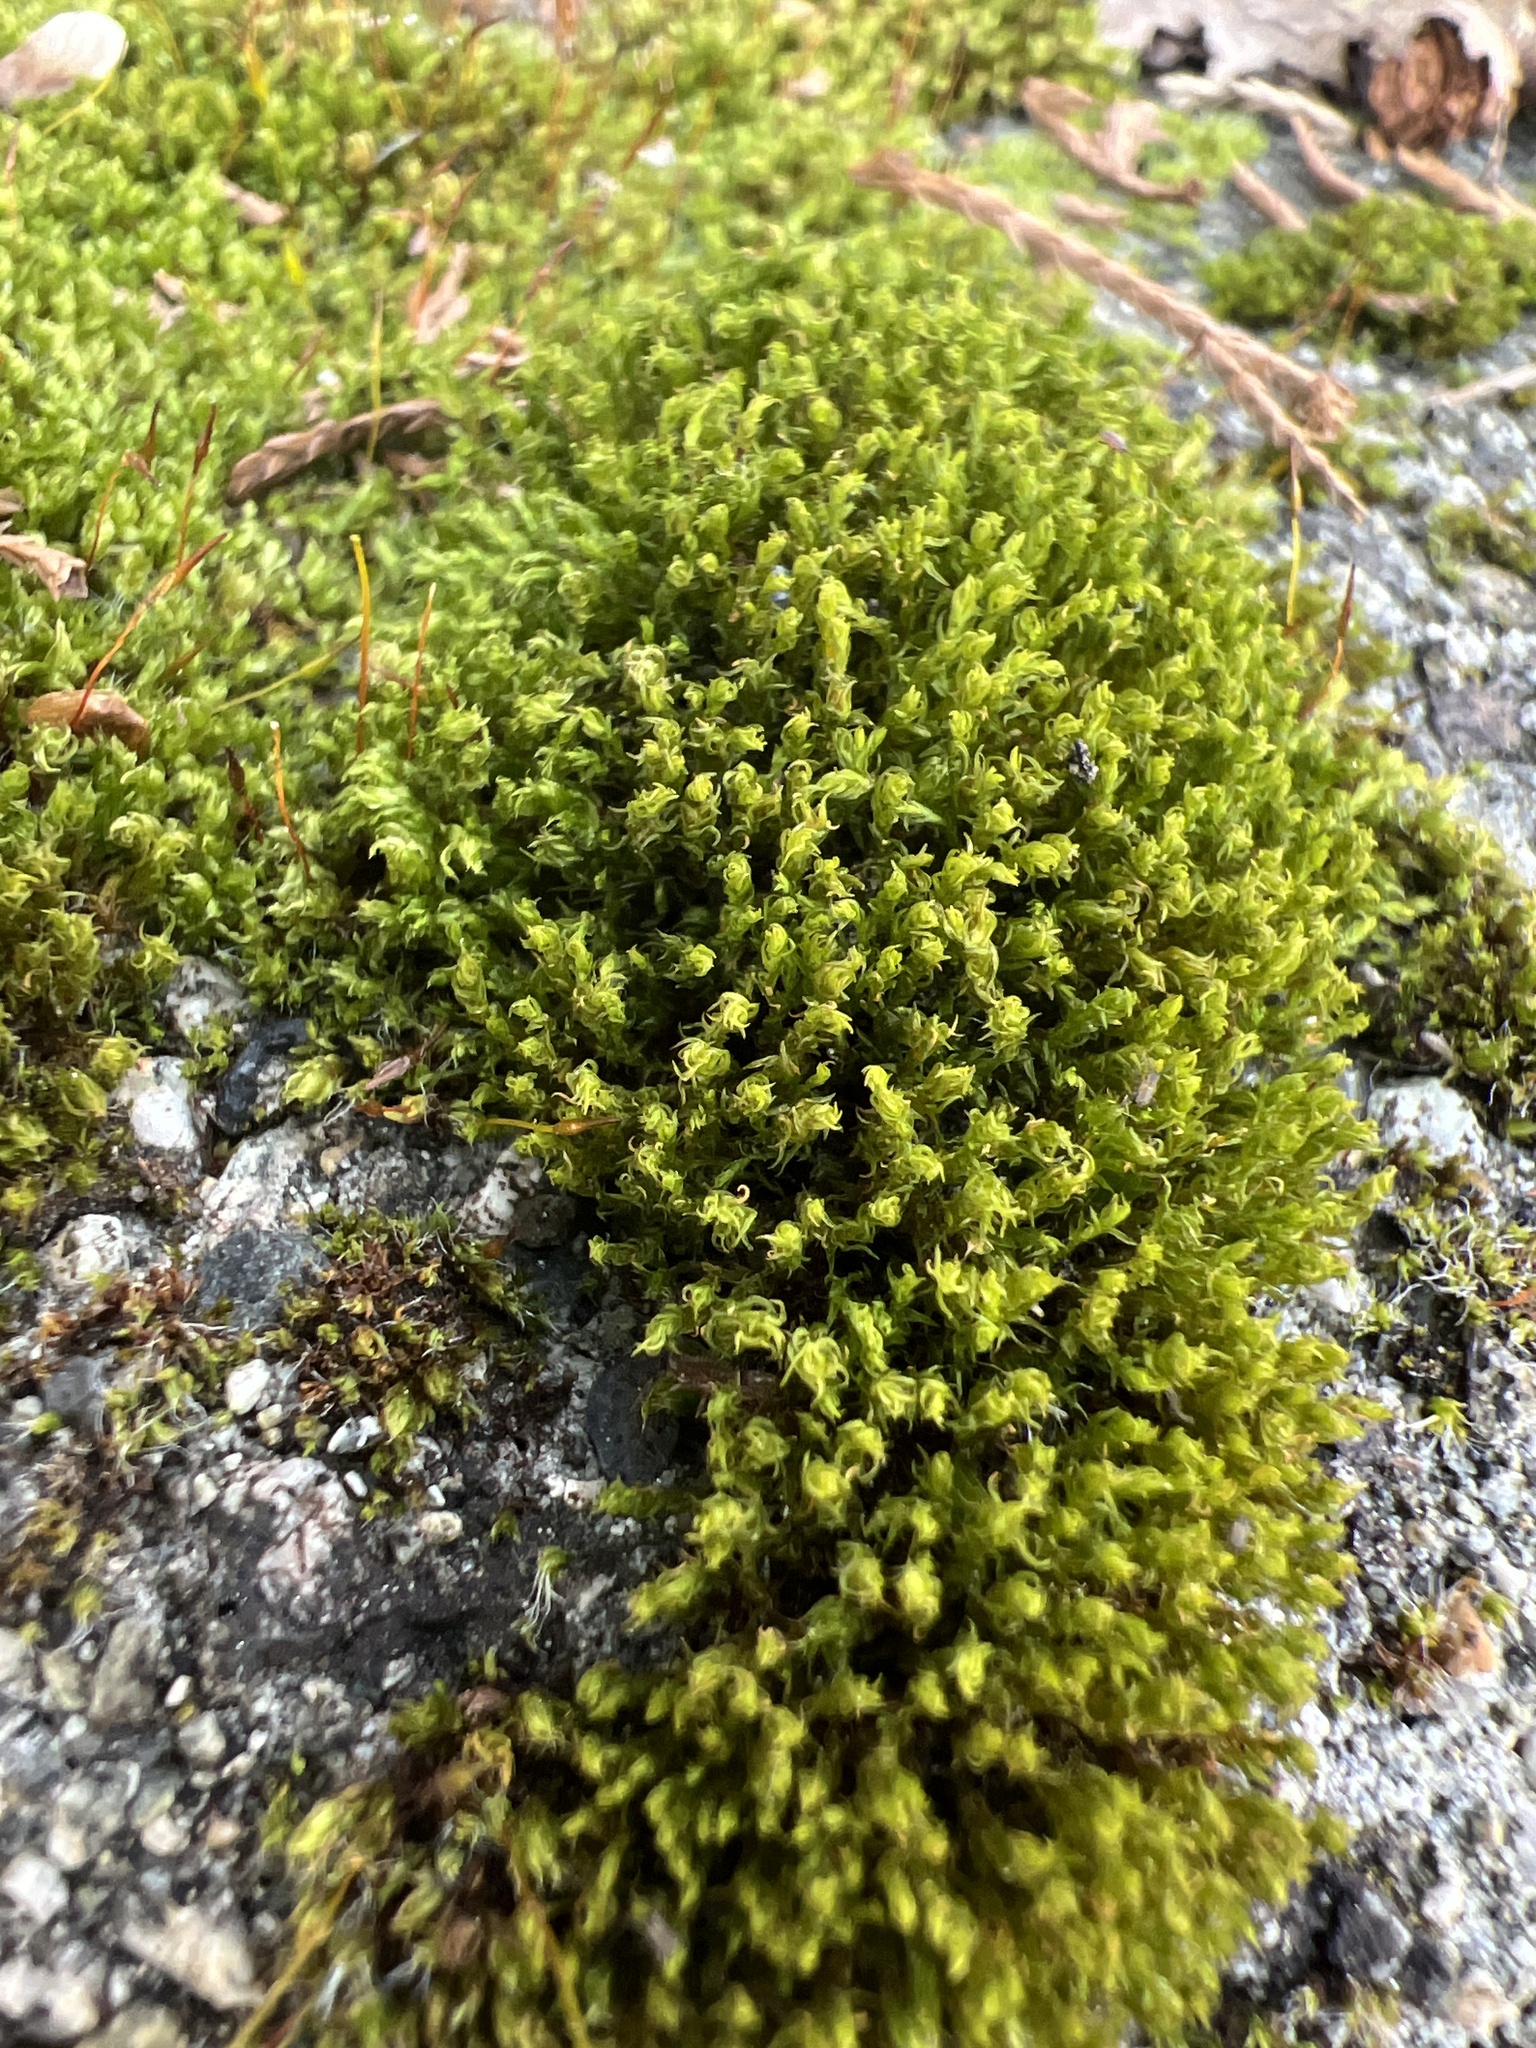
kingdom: Plantae
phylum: Bryophyta
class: Bryopsida
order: Bryales
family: Bryaceae
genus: Rosulabryum
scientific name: Rosulabryum capillare
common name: Capillary thread-moss
